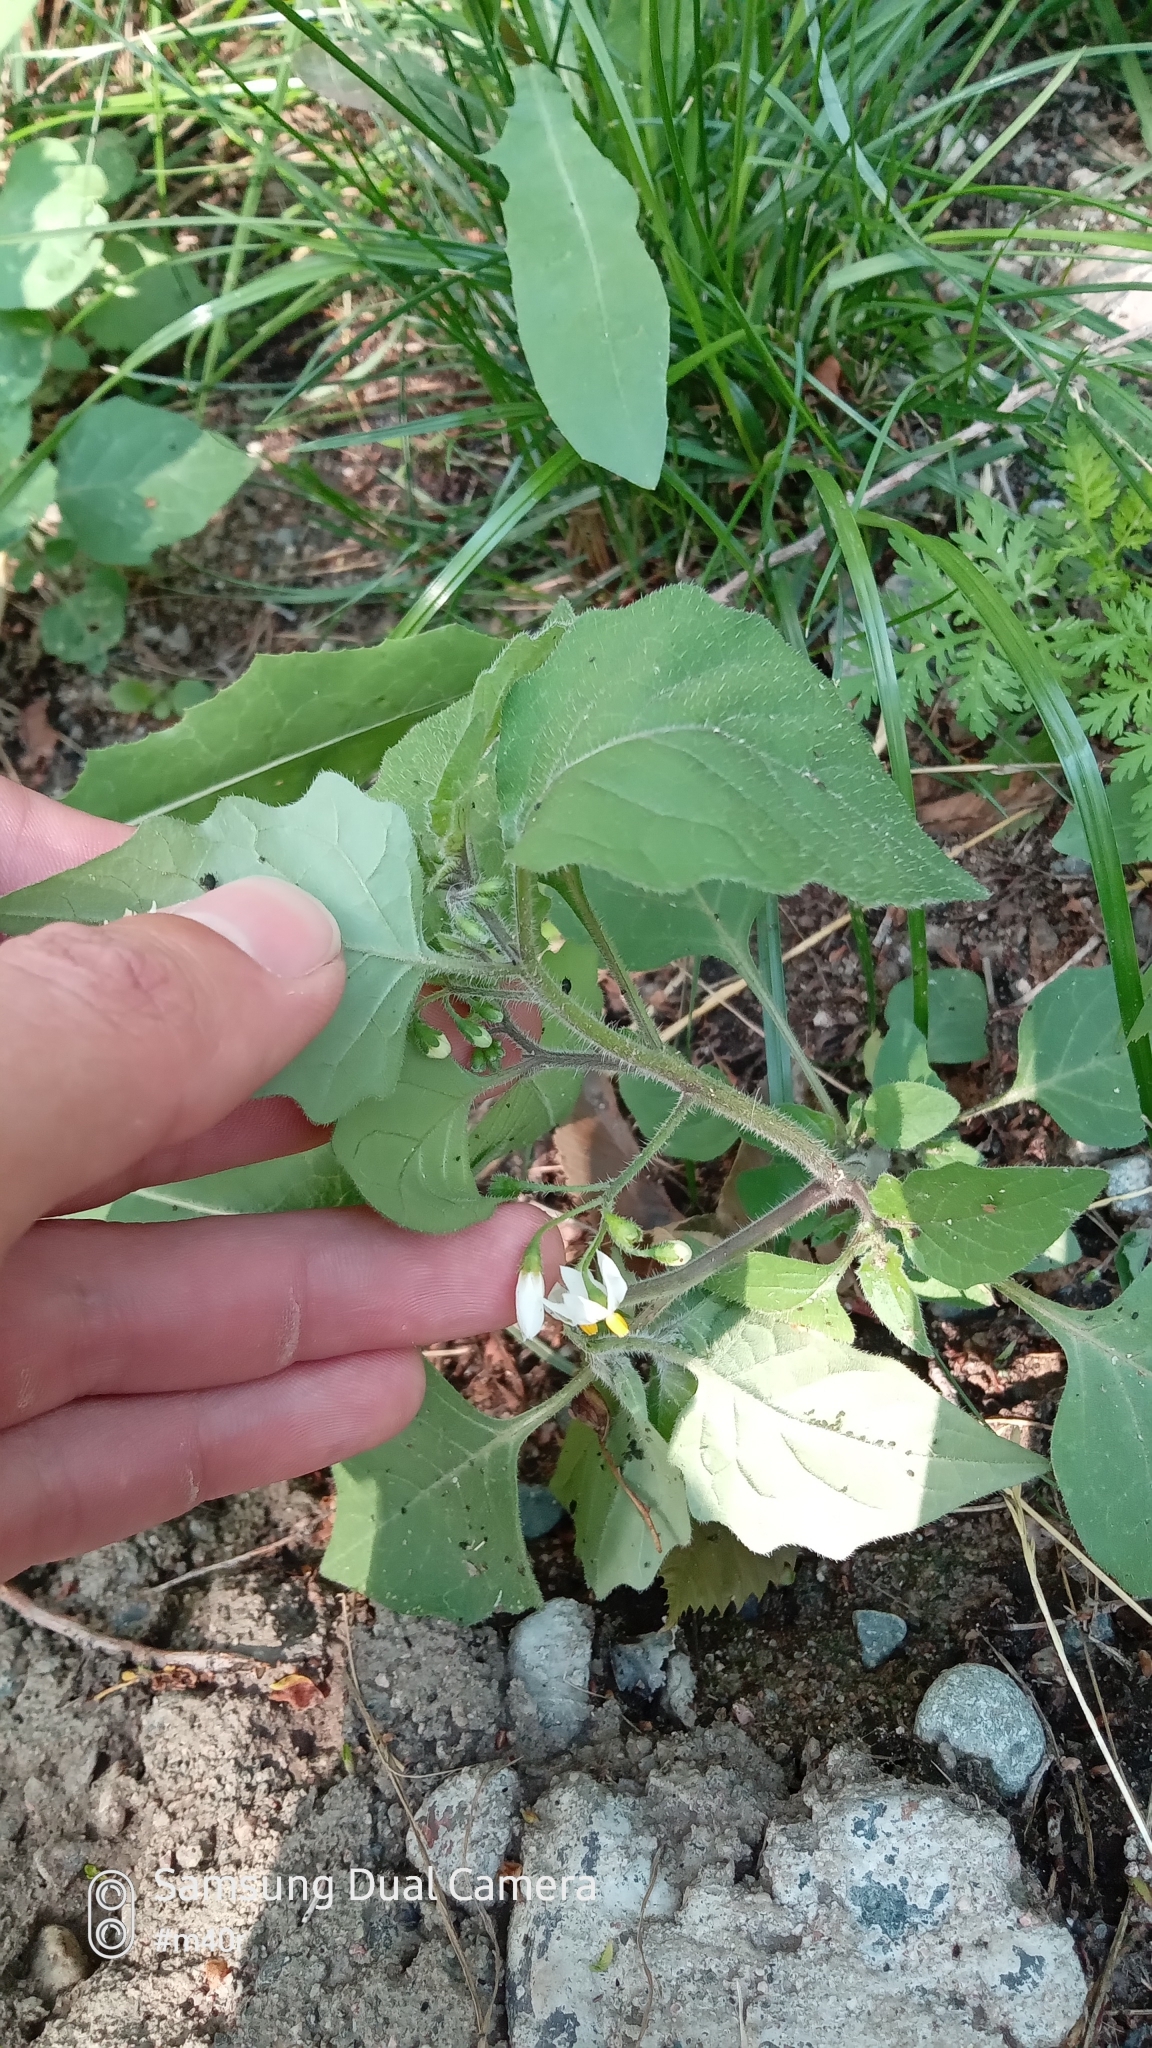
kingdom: Plantae
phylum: Tracheophyta
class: Magnoliopsida
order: Solanales
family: Solanaceae
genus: Solanum
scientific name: Solanum nigrum
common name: Black nightshade
